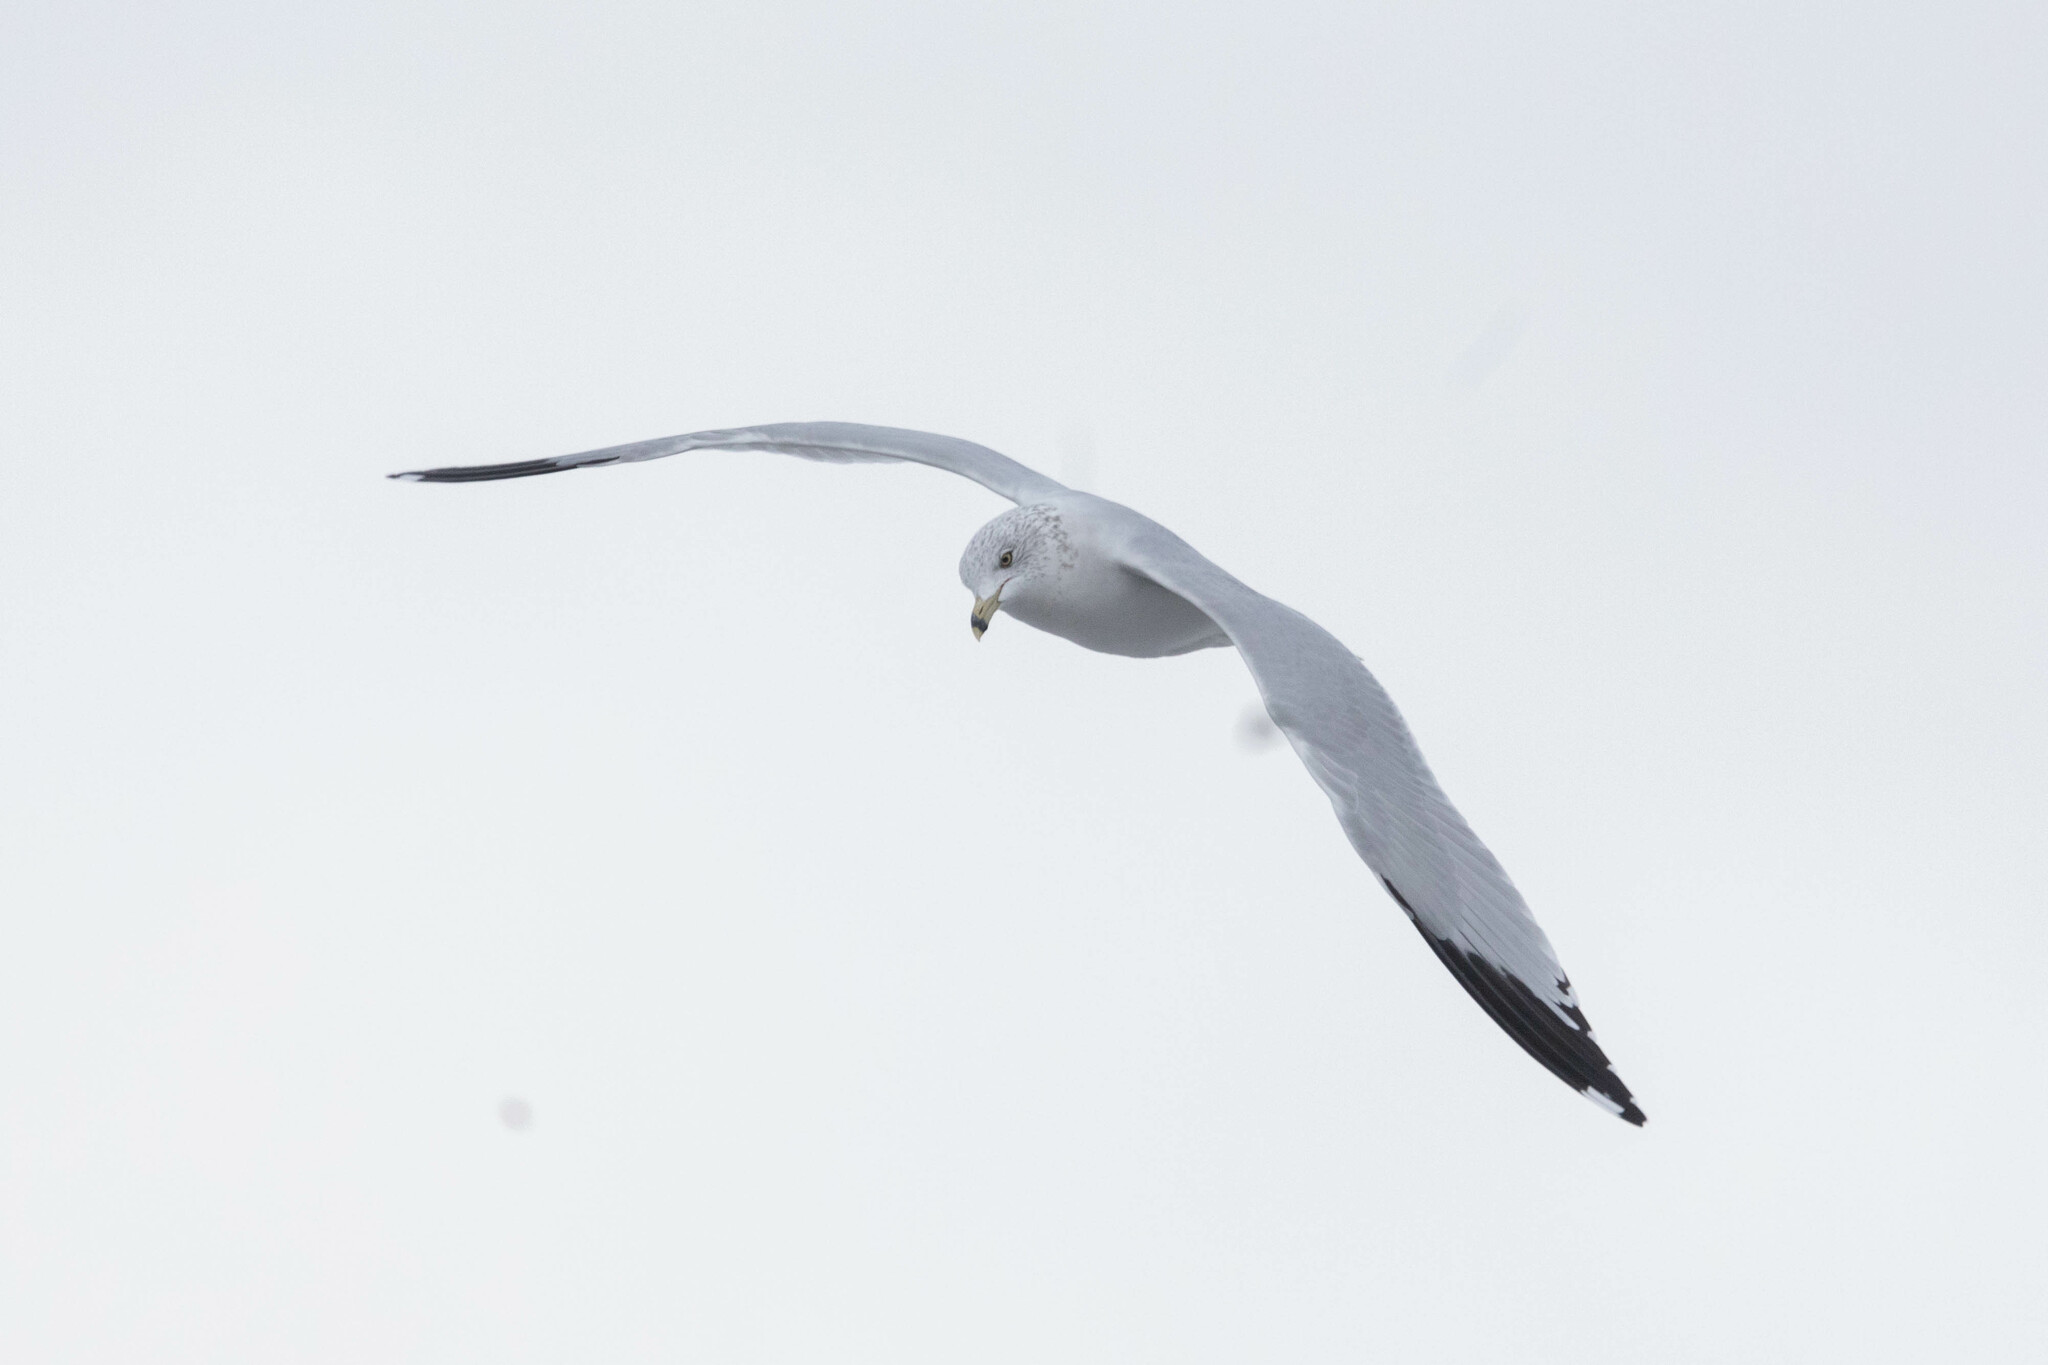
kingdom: Animalia
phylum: Chordata
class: Aves
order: Charadriiformes
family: Laridae
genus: Larus
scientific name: Larus delawarensis
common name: Ring-billed gull
